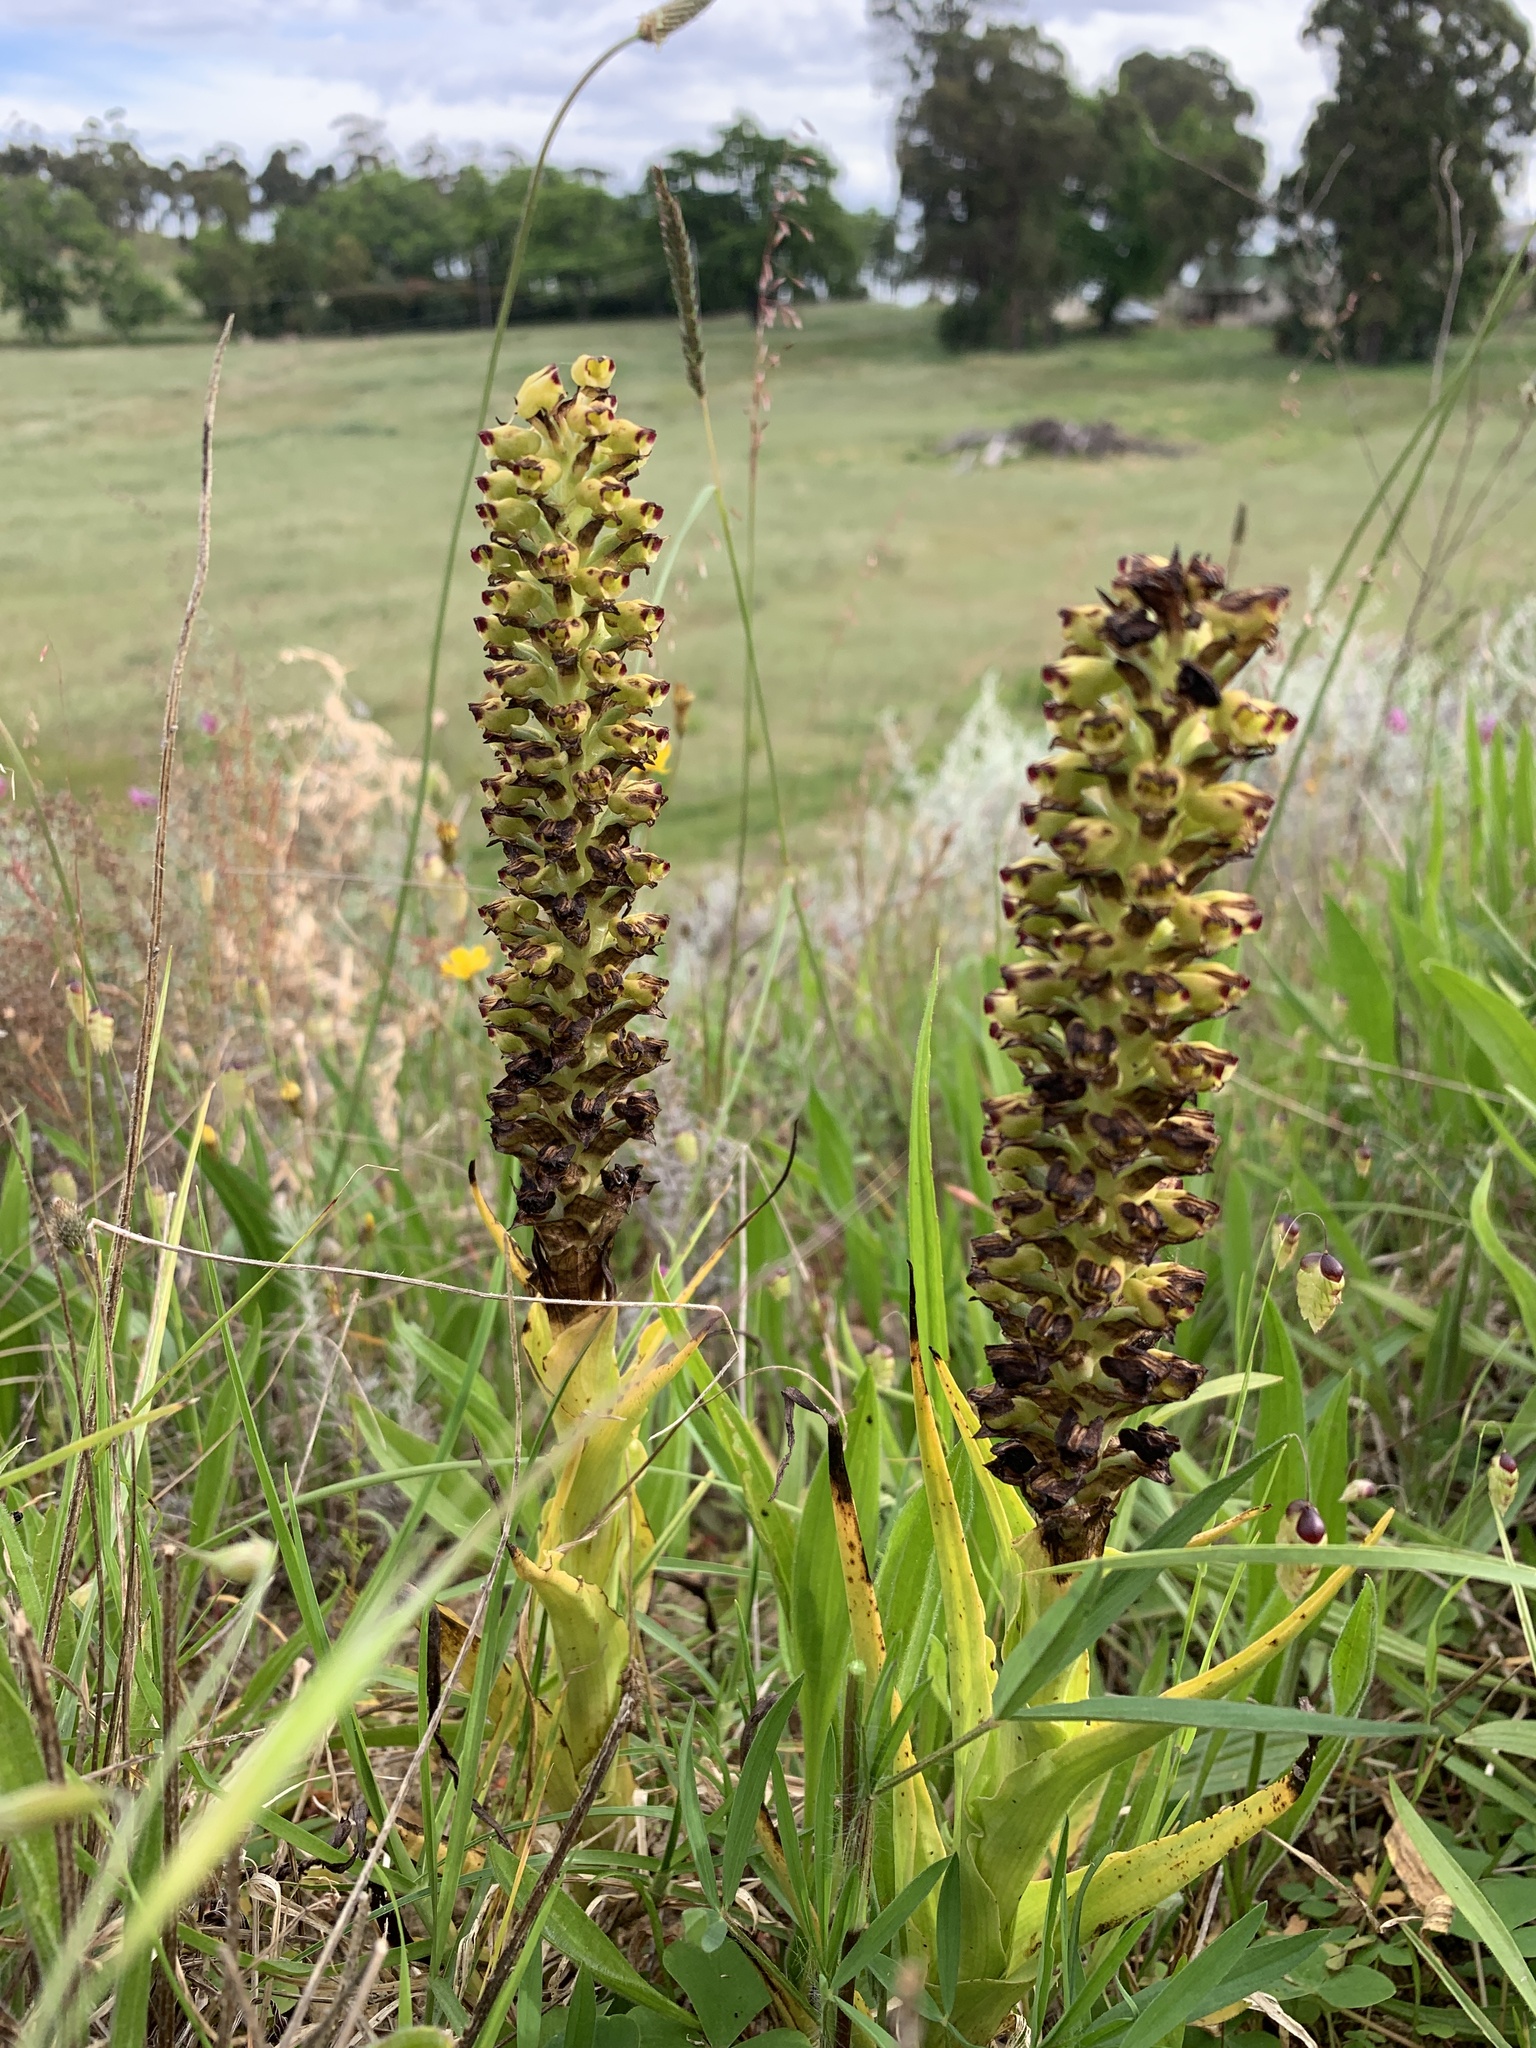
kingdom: Plantae
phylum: Tracheophyta
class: Liliopsida
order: Asparagales
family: Orchidaceae
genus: Corycium
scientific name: Corycium orobanchoides
